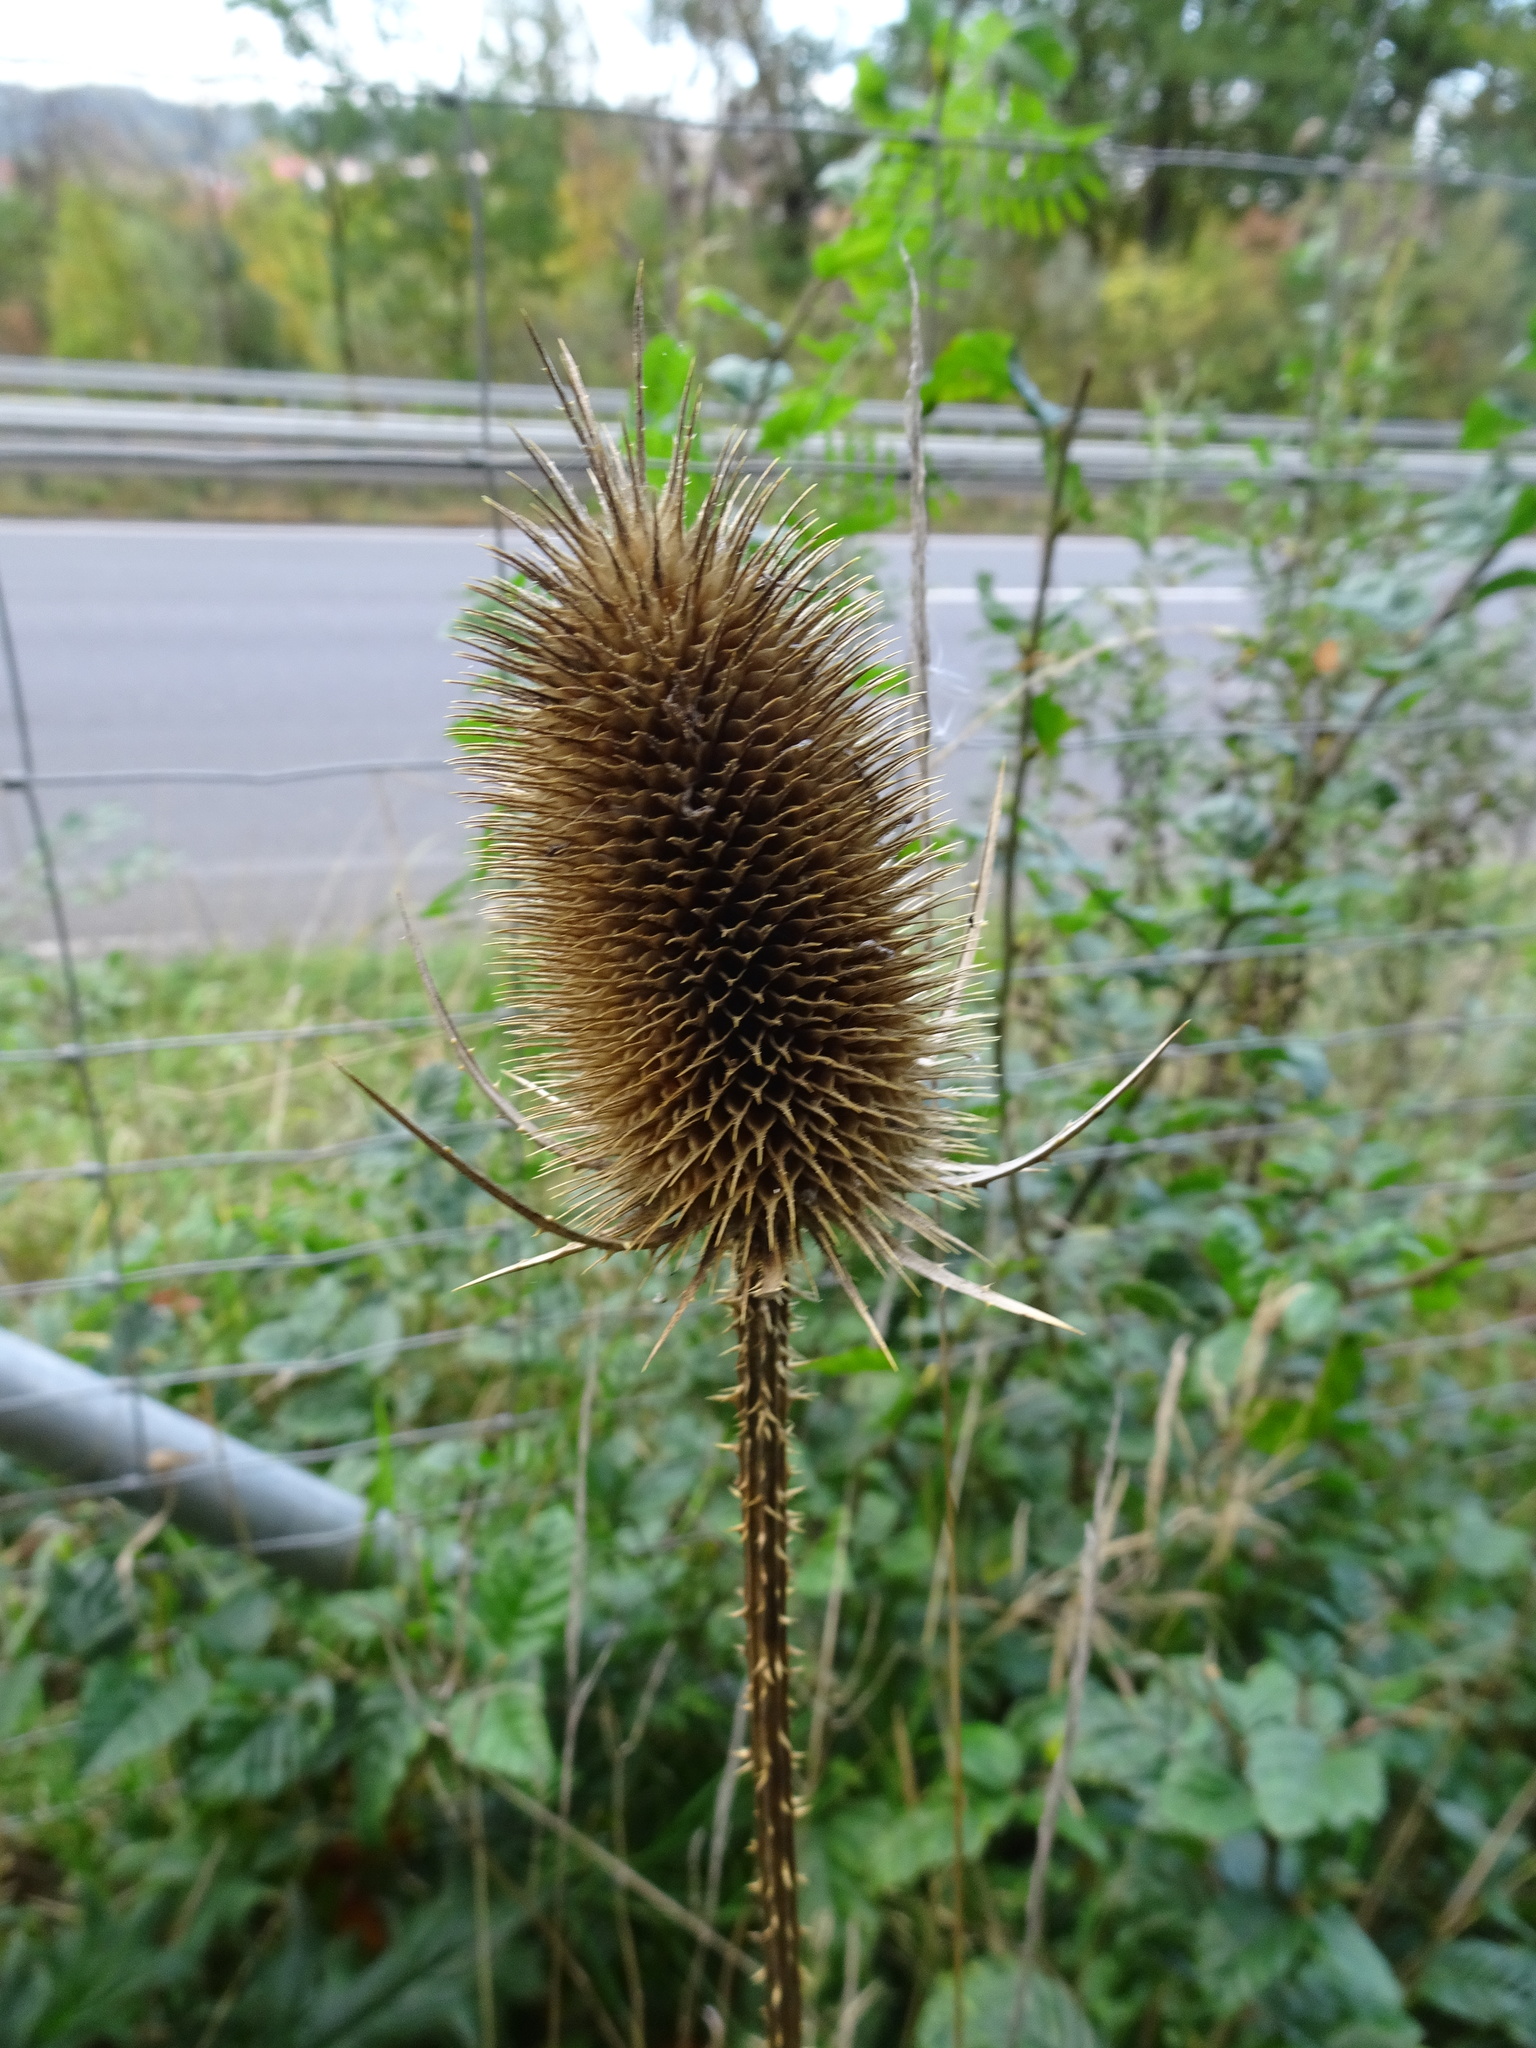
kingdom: Plantae
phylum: Tracheophyta
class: Magnoliopsida
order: Dipsacales
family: Caprifoliaceae
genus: Dipsacus
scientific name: Dipsacus fullonum
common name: Teasel
